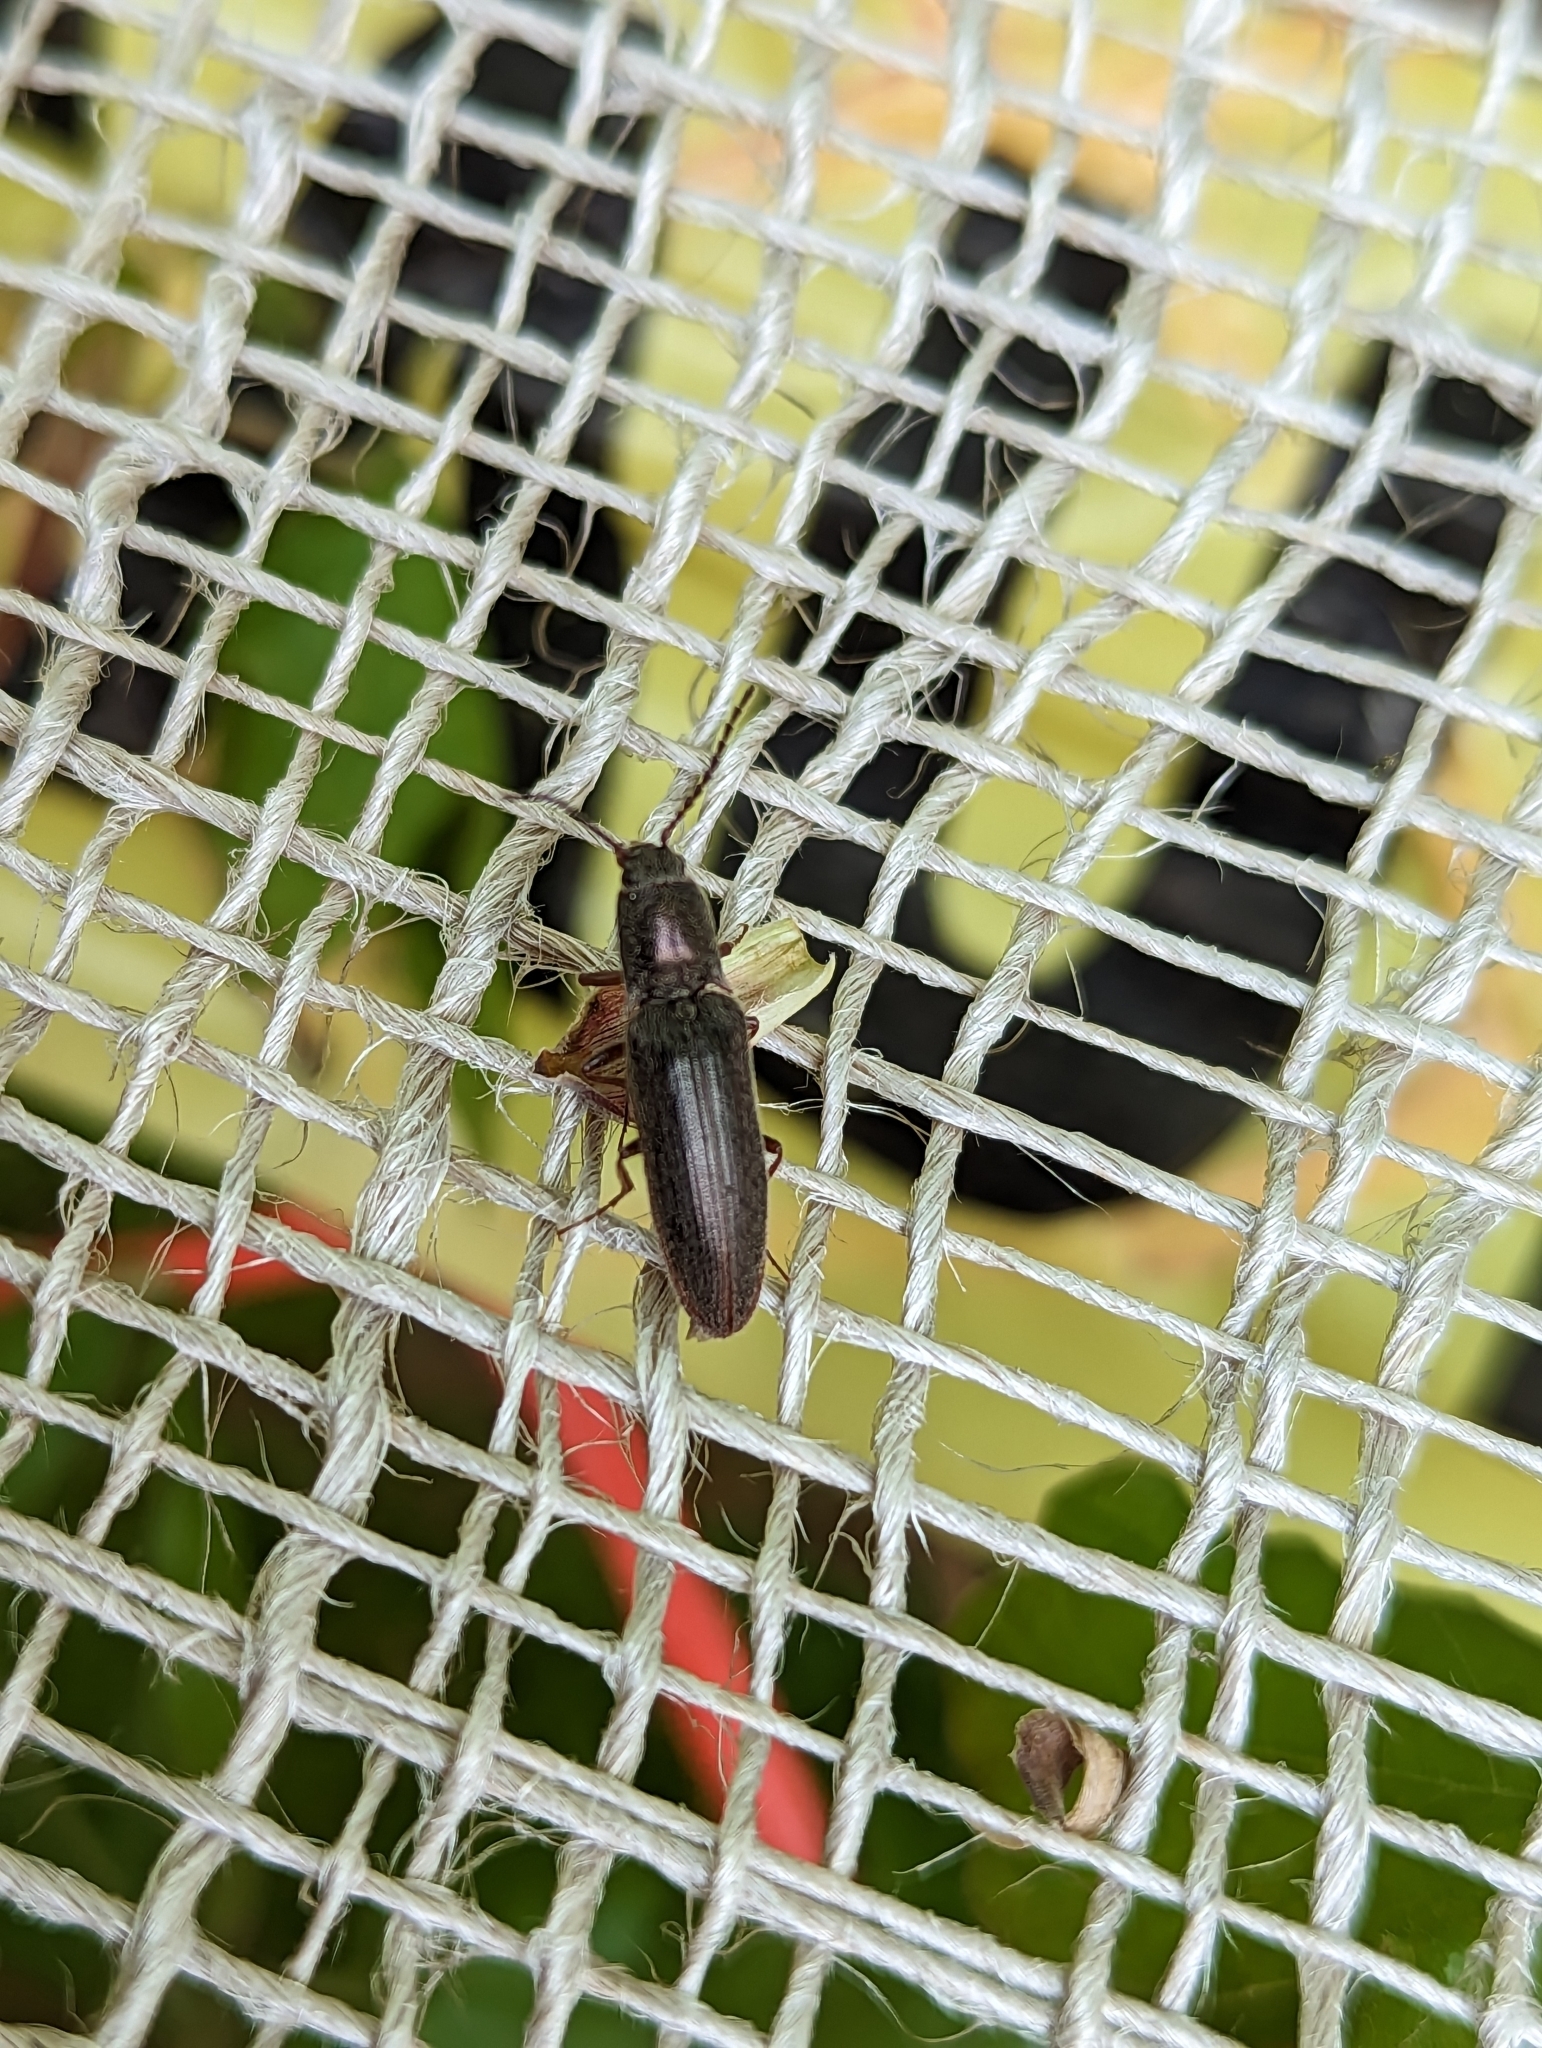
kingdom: Animalia
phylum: Arthropoda
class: Insecta
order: Coleoptera
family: Elateridae
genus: Sylvanelater
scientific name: Sylvanelater cylindriformis
